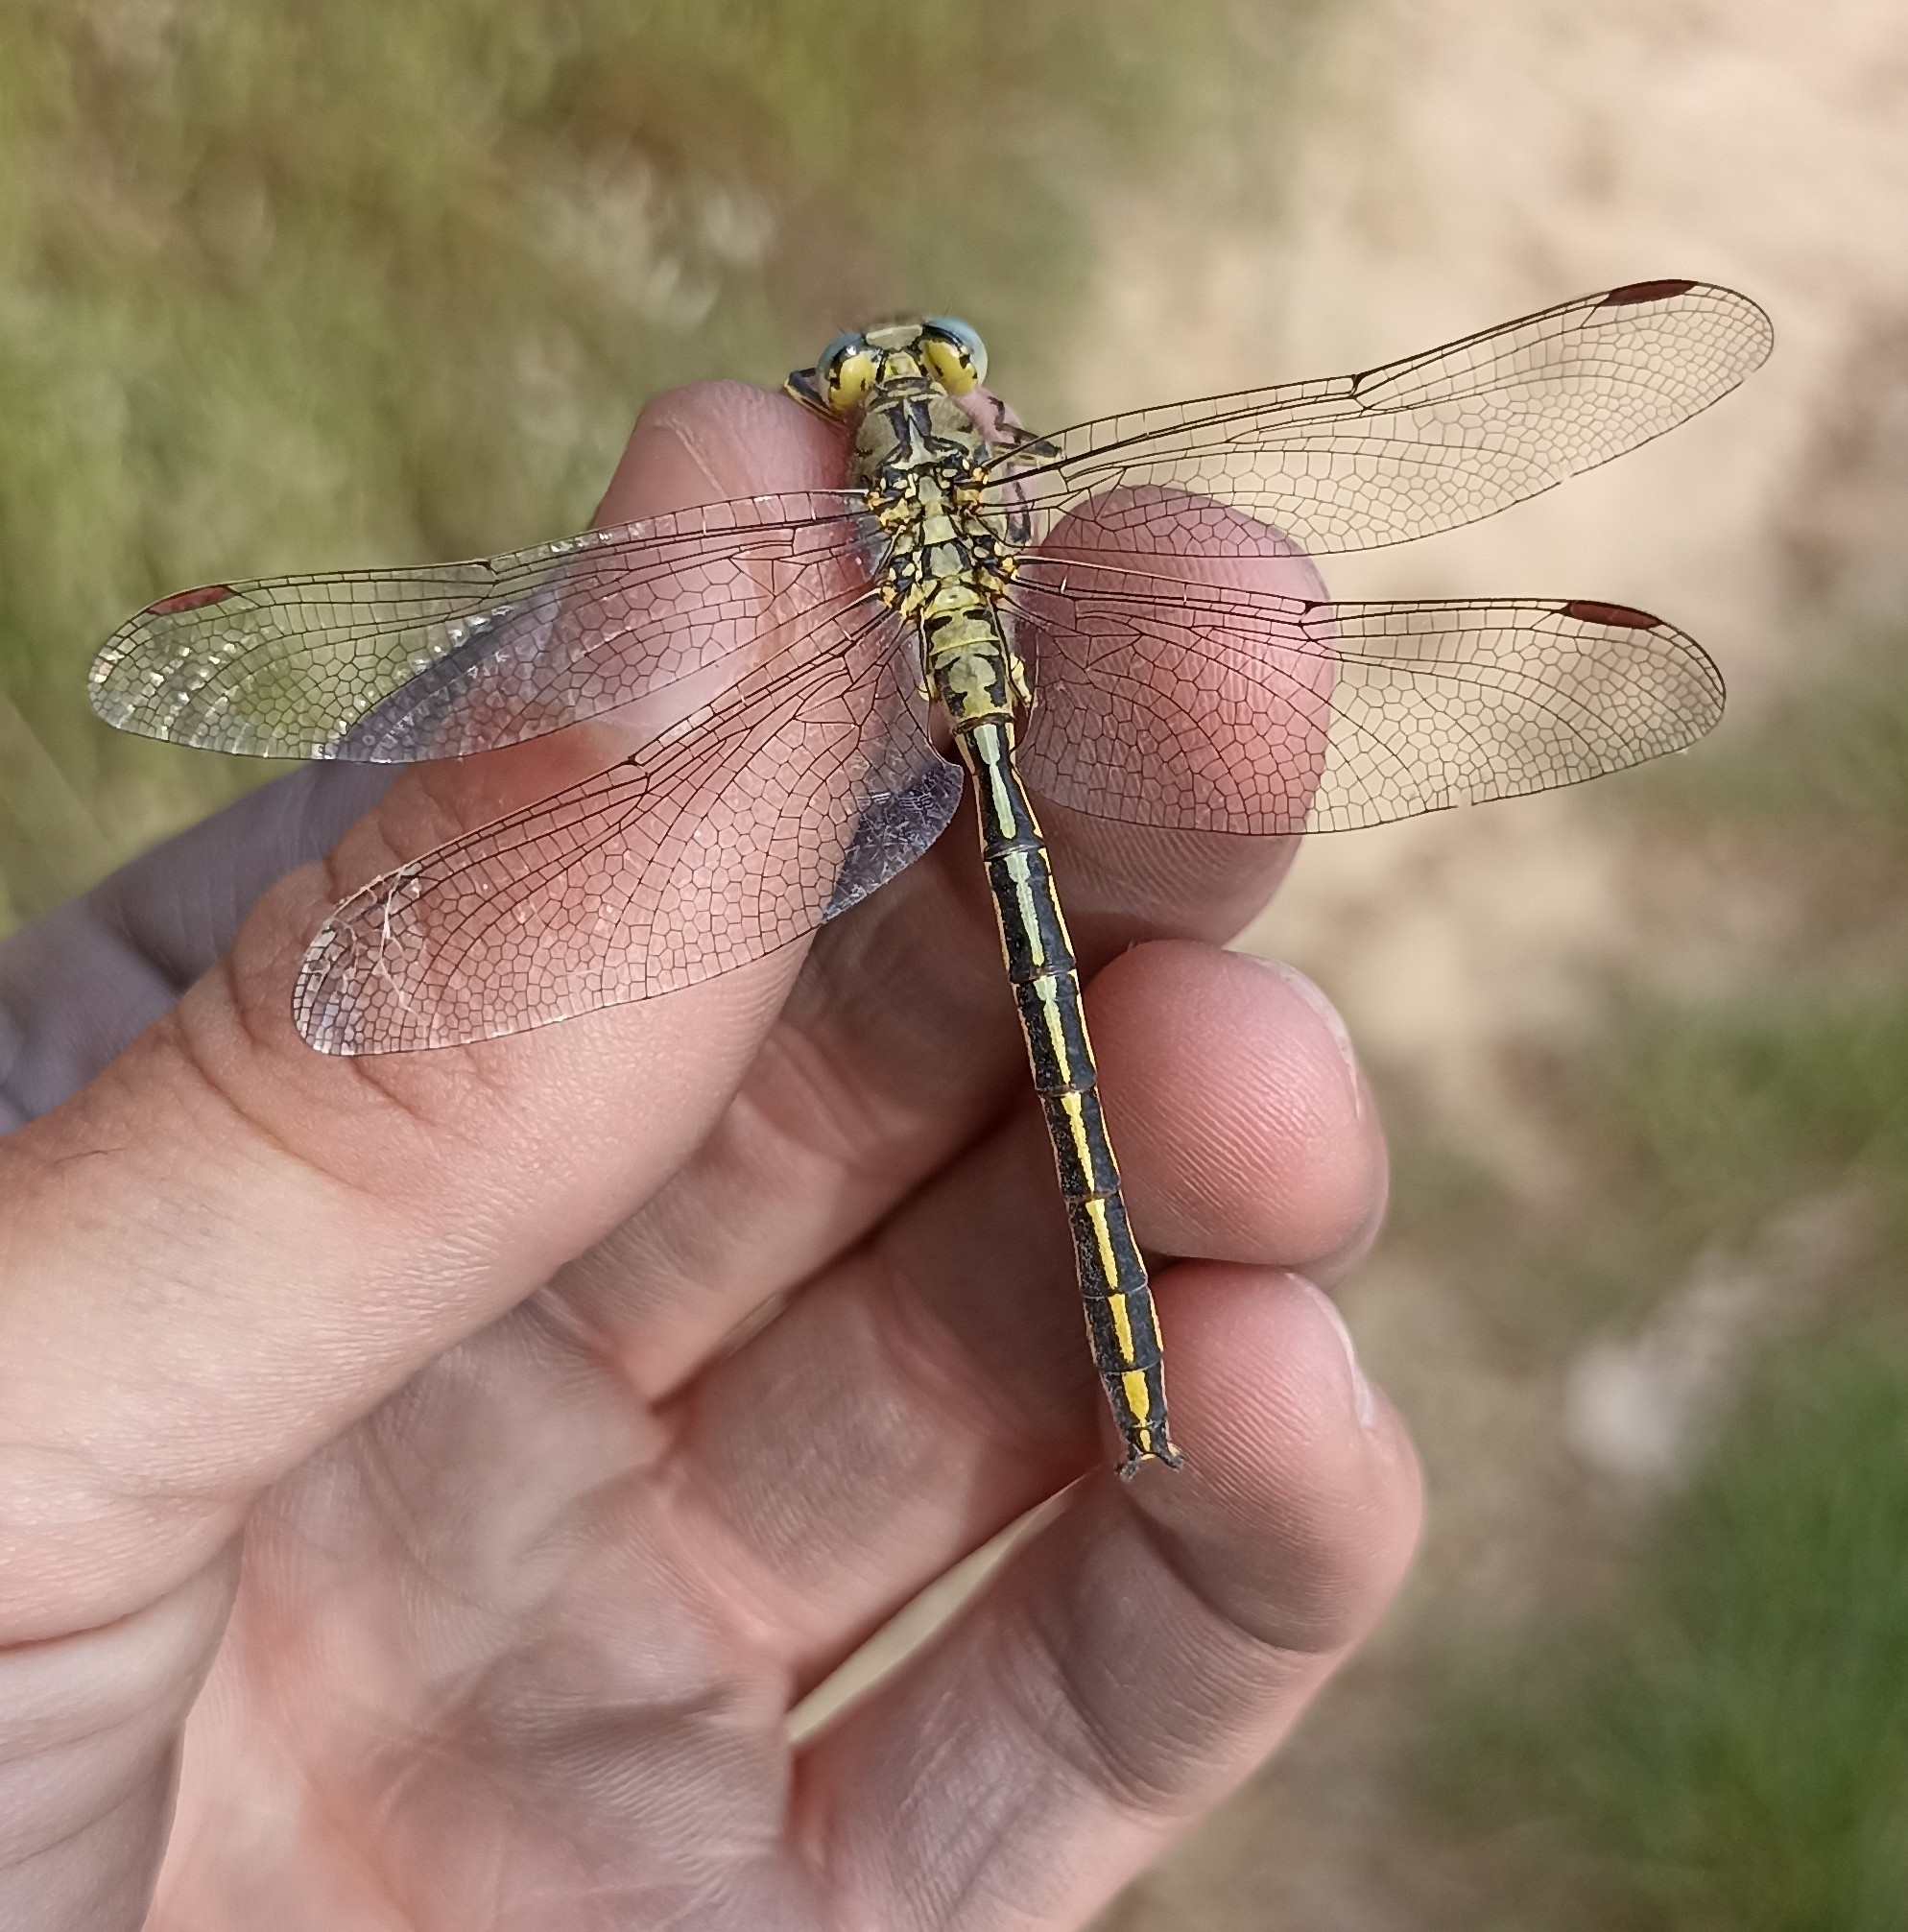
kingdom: Animalia
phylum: Arthropoda
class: Insecta
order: Odonata
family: Gomphidae
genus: Gomphus
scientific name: Gomphus pulchellus
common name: Western clubtail
